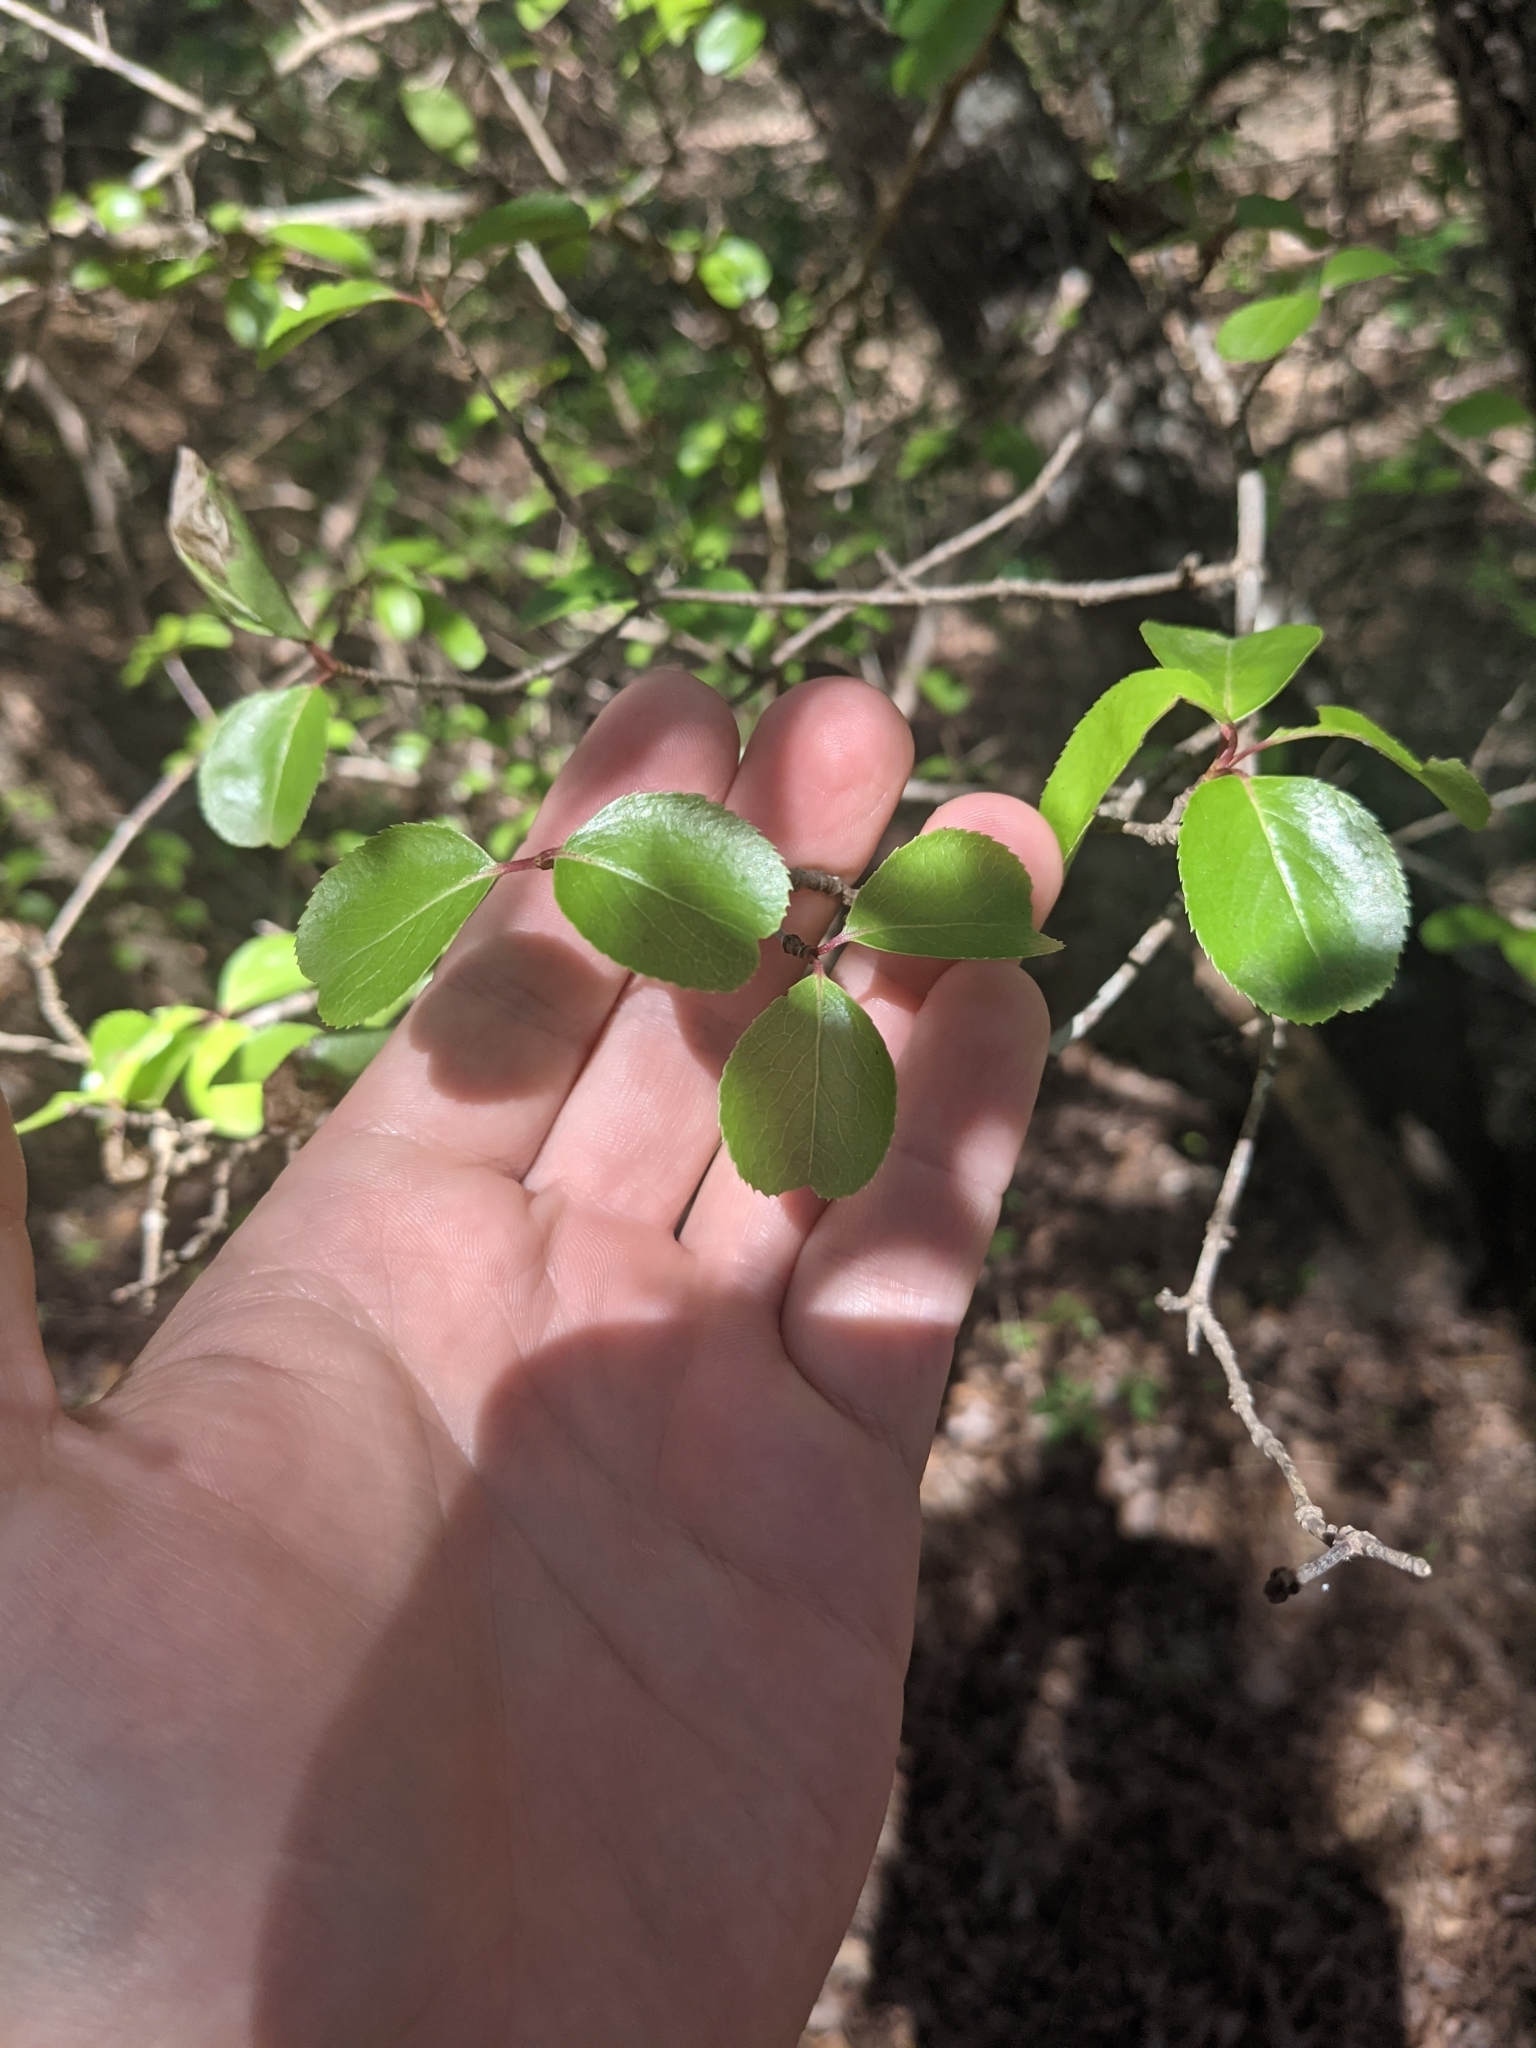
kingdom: Plantae
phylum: Tracheophyta
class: Magnoliopsida
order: Dipsacales
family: Viburnaceae
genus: Viburnum
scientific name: Viburnum rufidulum
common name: Blue haw
